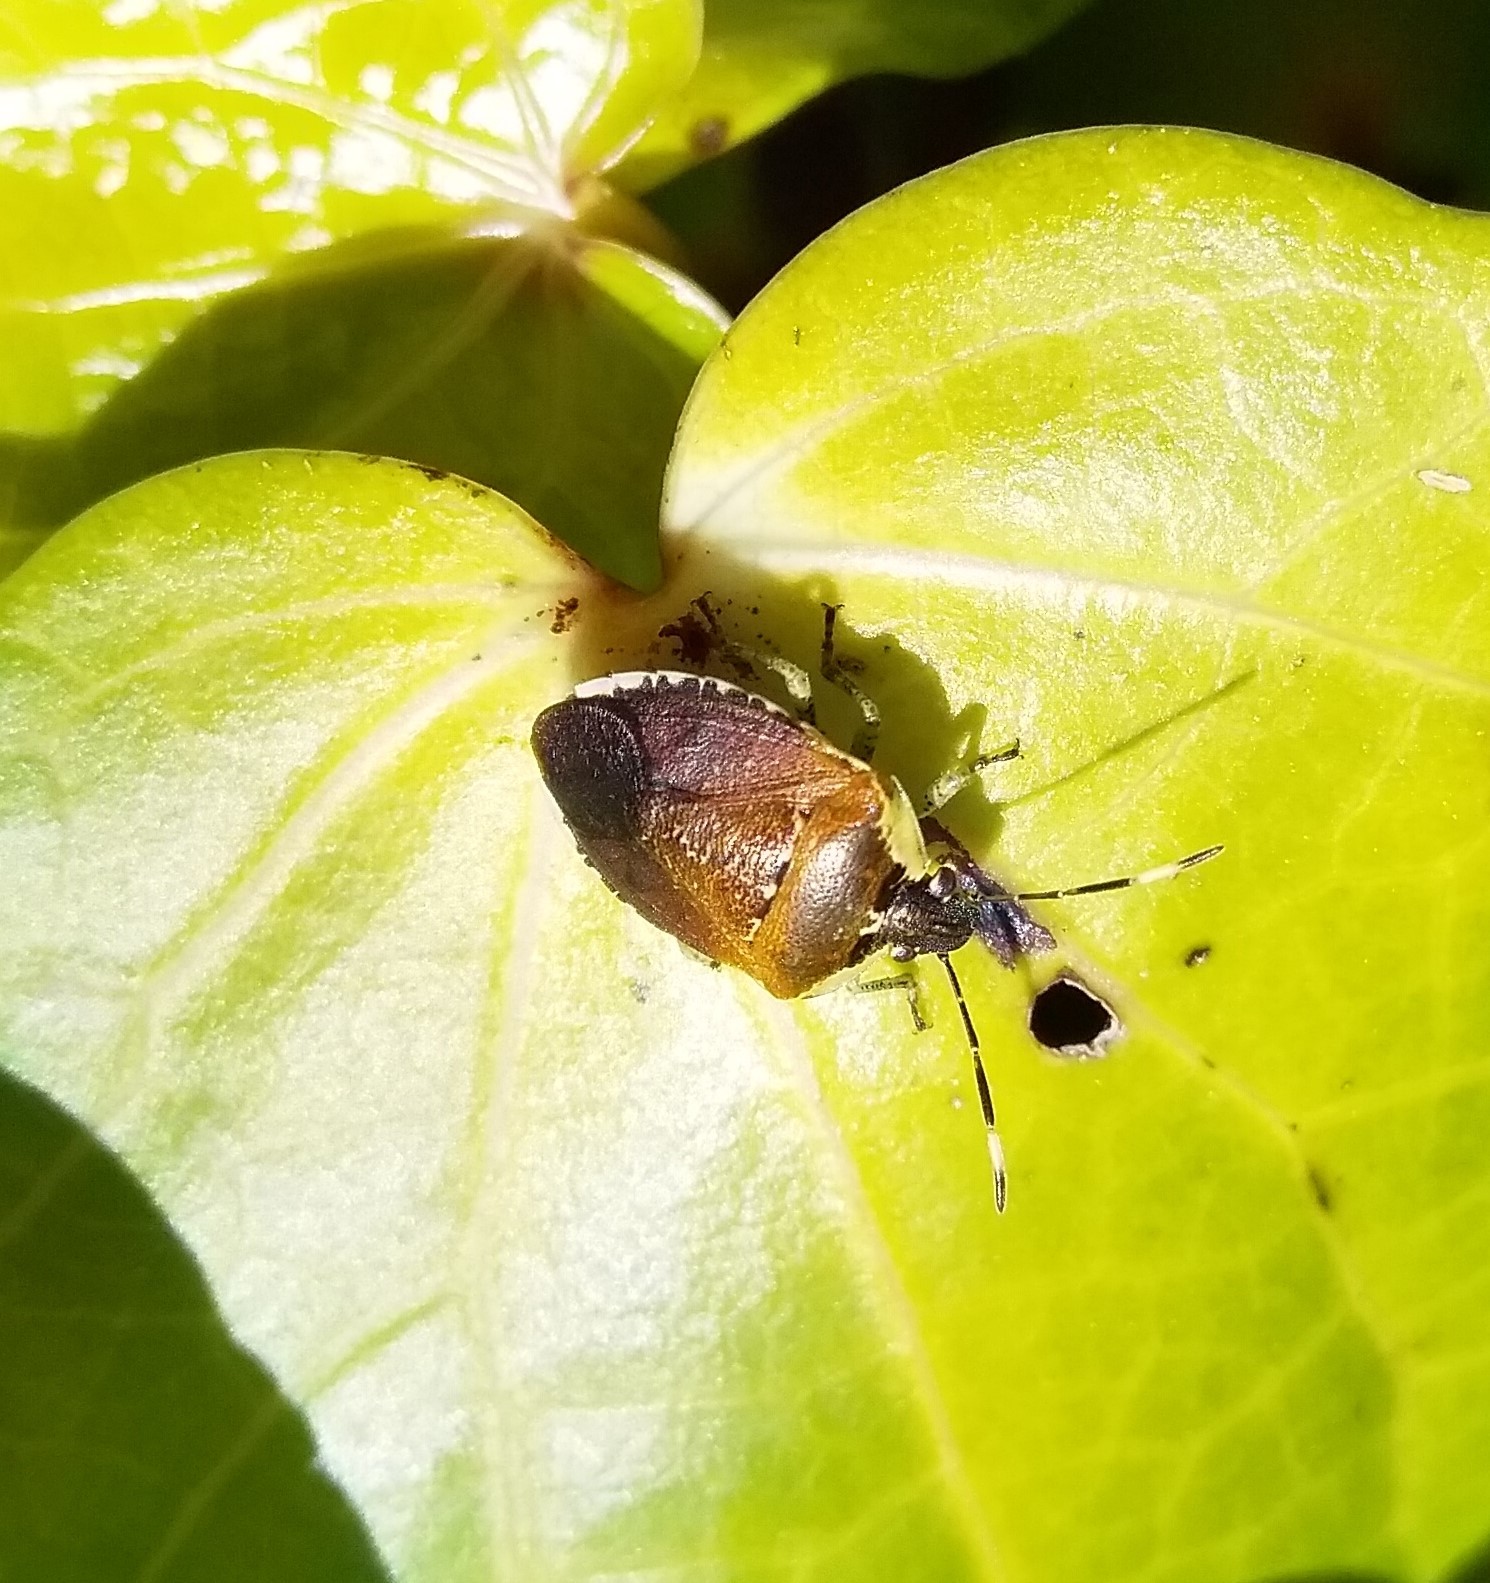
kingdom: Animalia
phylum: Arthropoda
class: Insecta
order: Hemiptera
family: Pentatomidae
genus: Monteithiella
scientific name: Monteithiella
